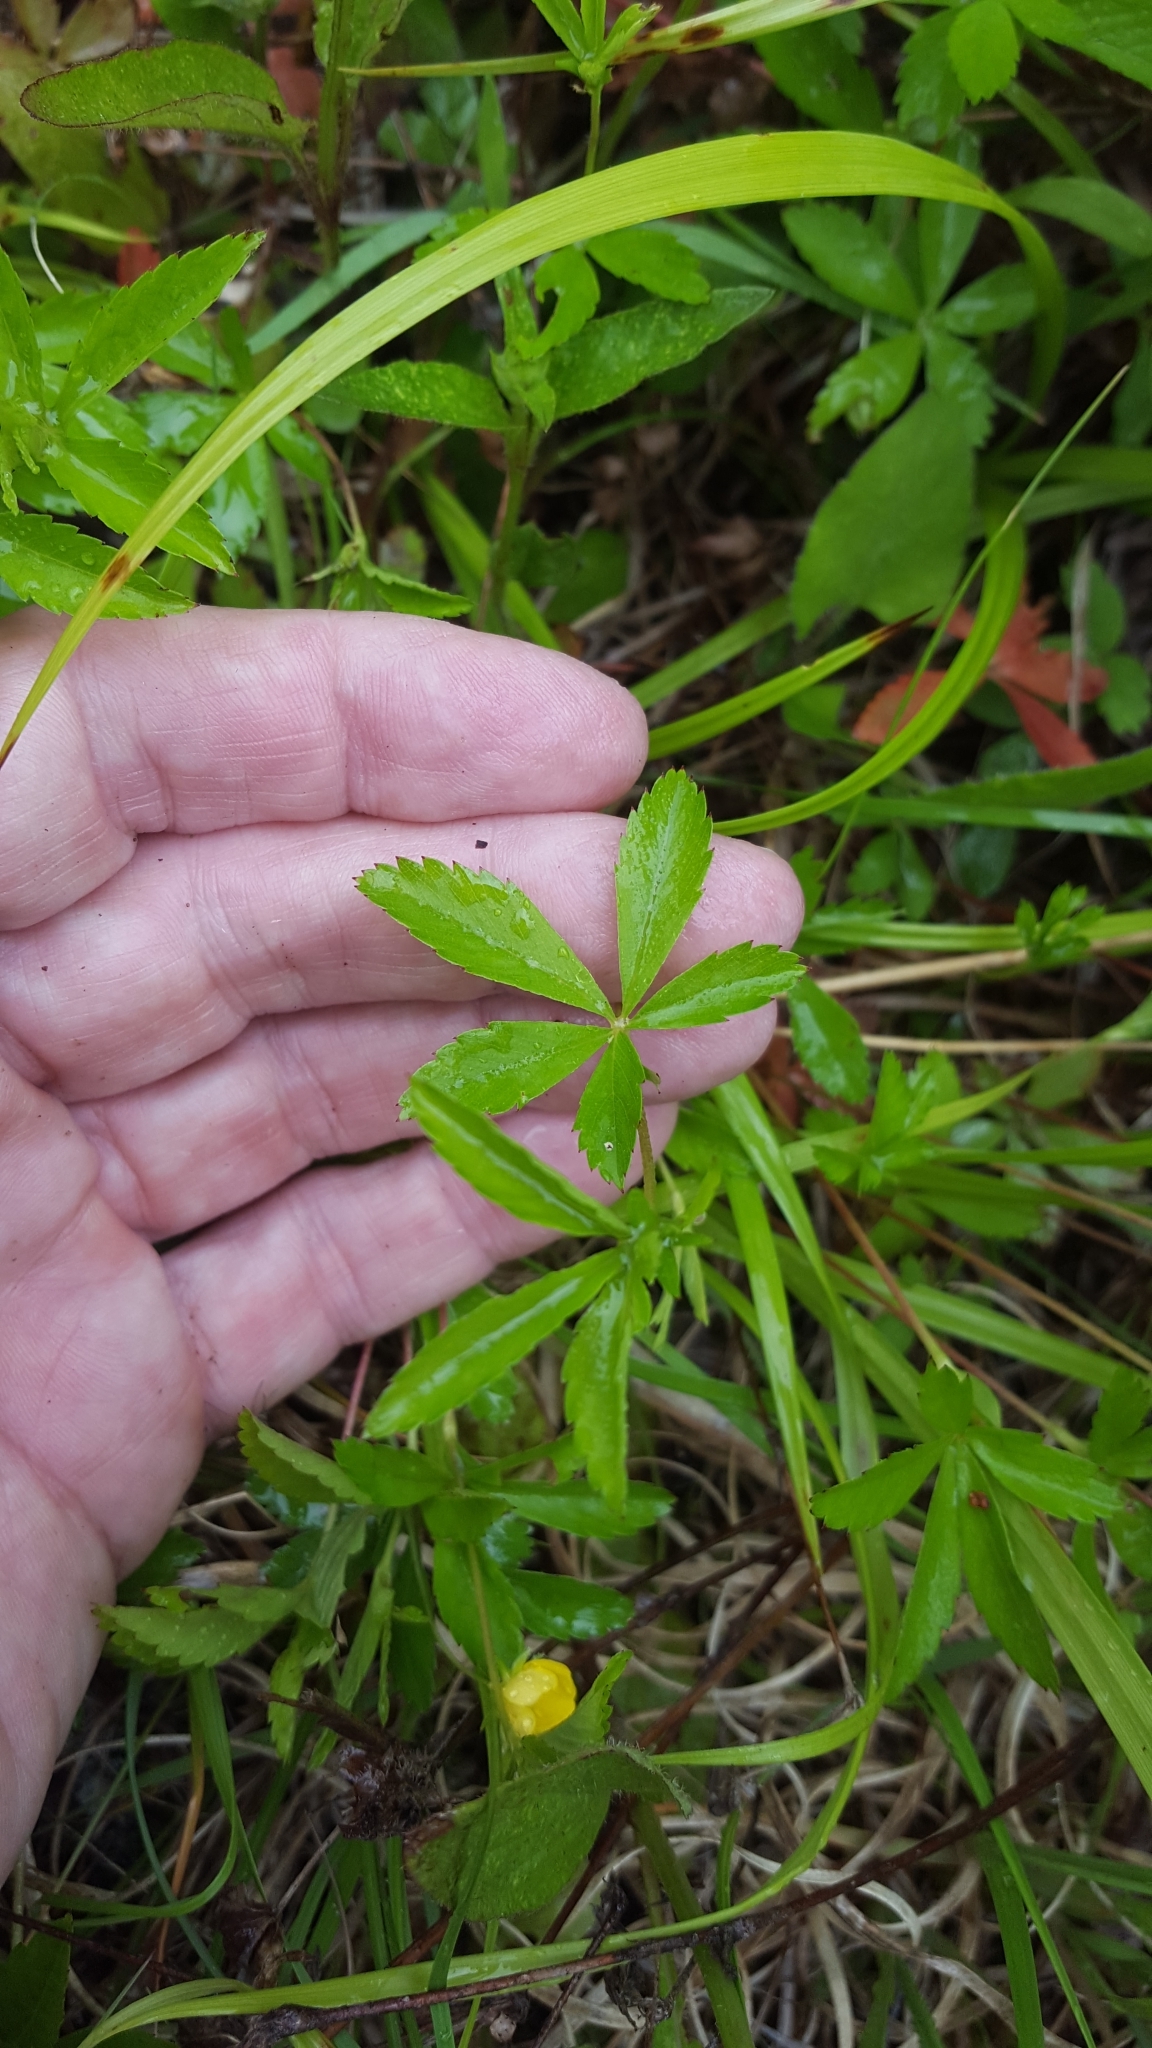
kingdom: Plantae
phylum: Tracheophyta
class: Magnoliopsida
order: Rosales
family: Rosaceae
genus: Potentilla
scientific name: Potentilla simplex
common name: Old field cinquefoil
